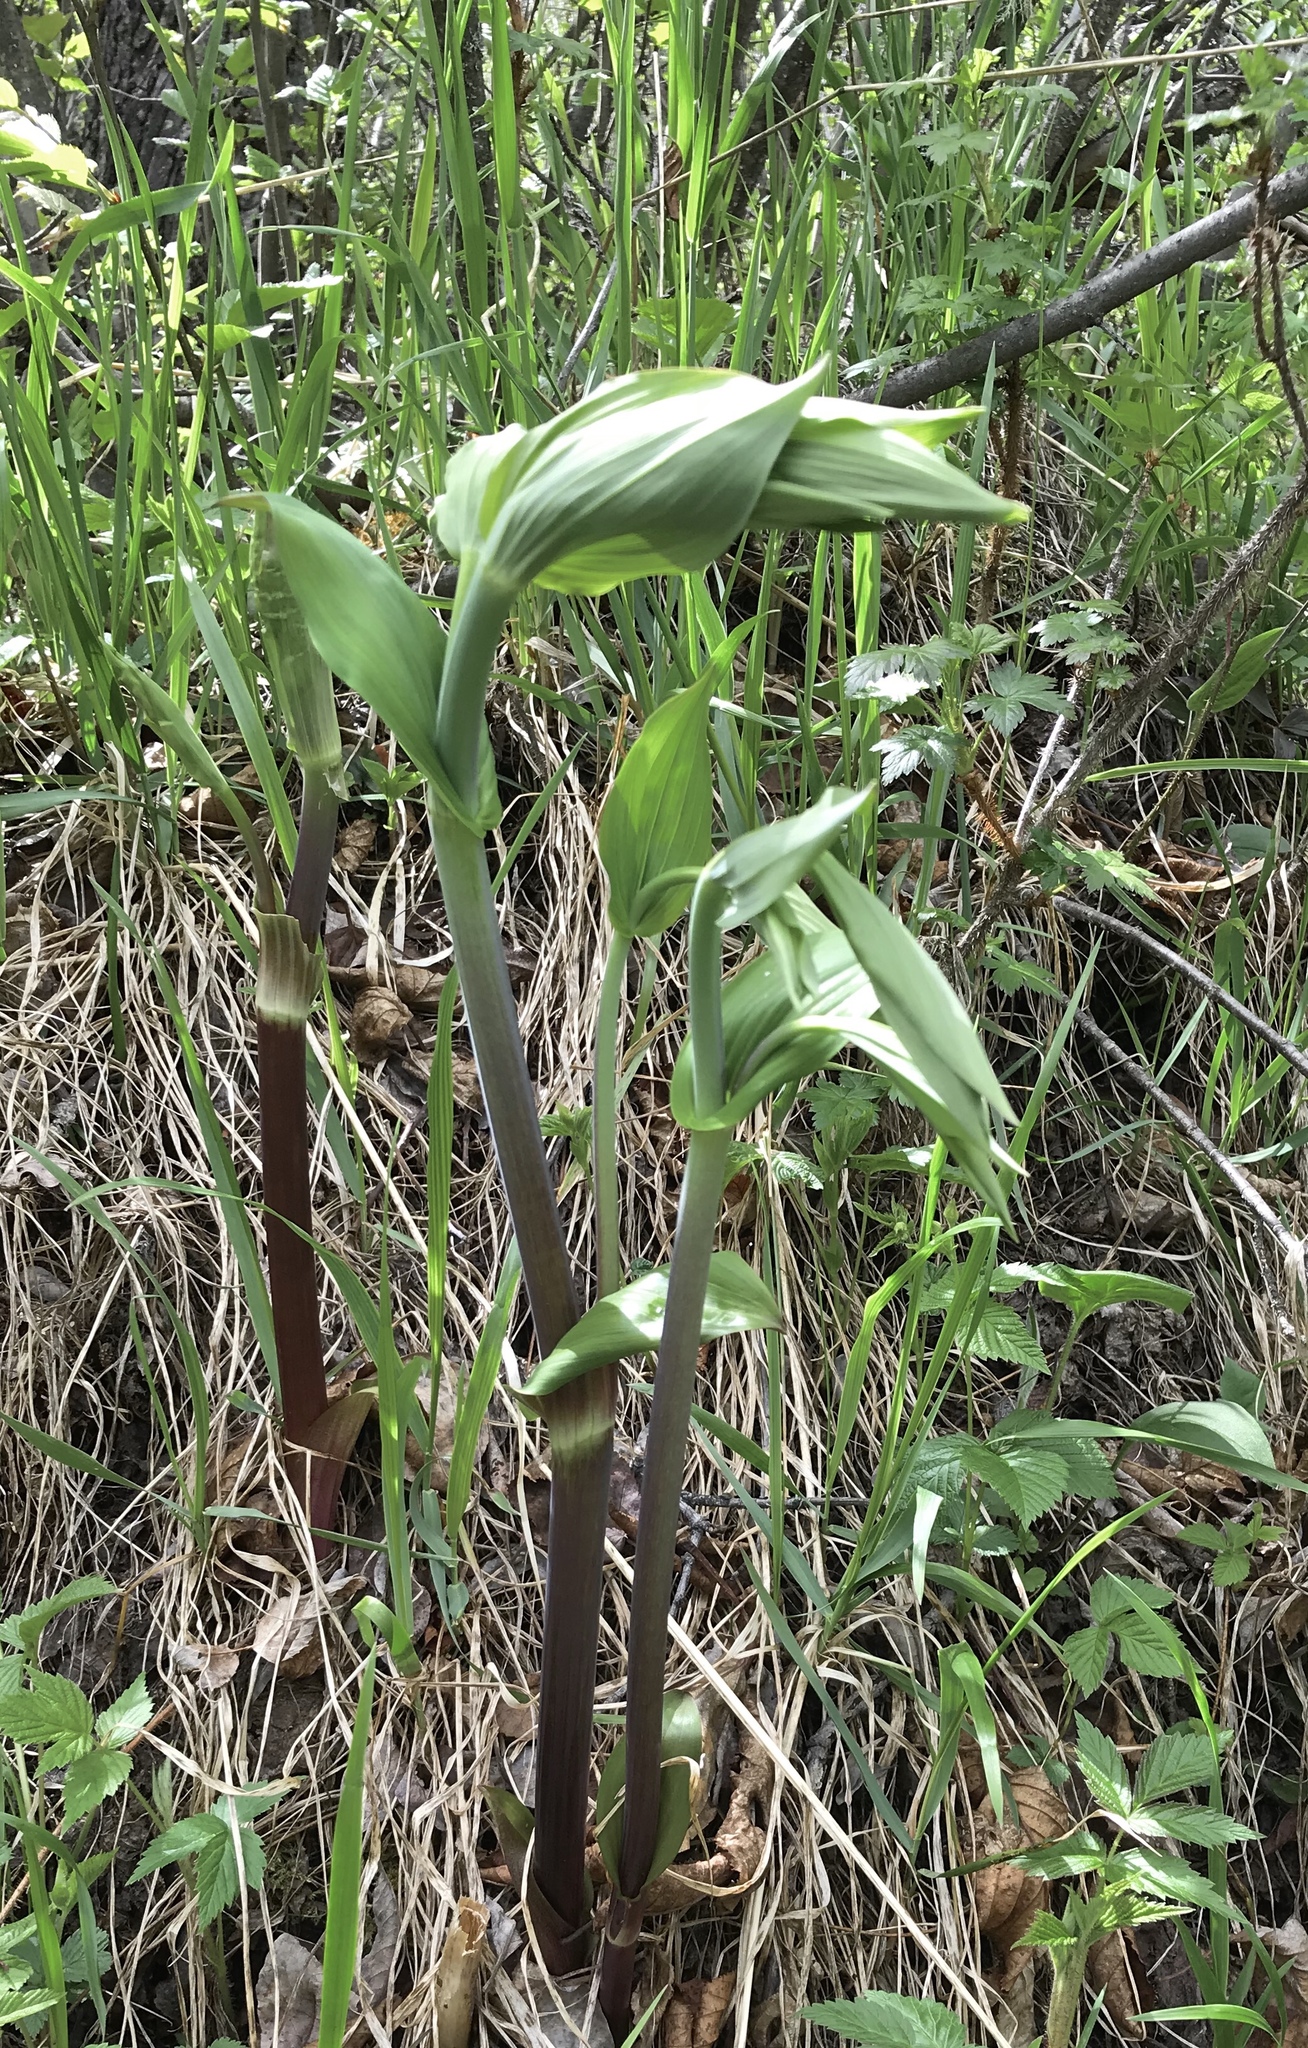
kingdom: Plantae
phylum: Tracheophyta
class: Liliopsida
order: Liliales
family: Liliaceae
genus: Streptopus
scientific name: Streptopus amplexifolius
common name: Clasp twisted stalk
